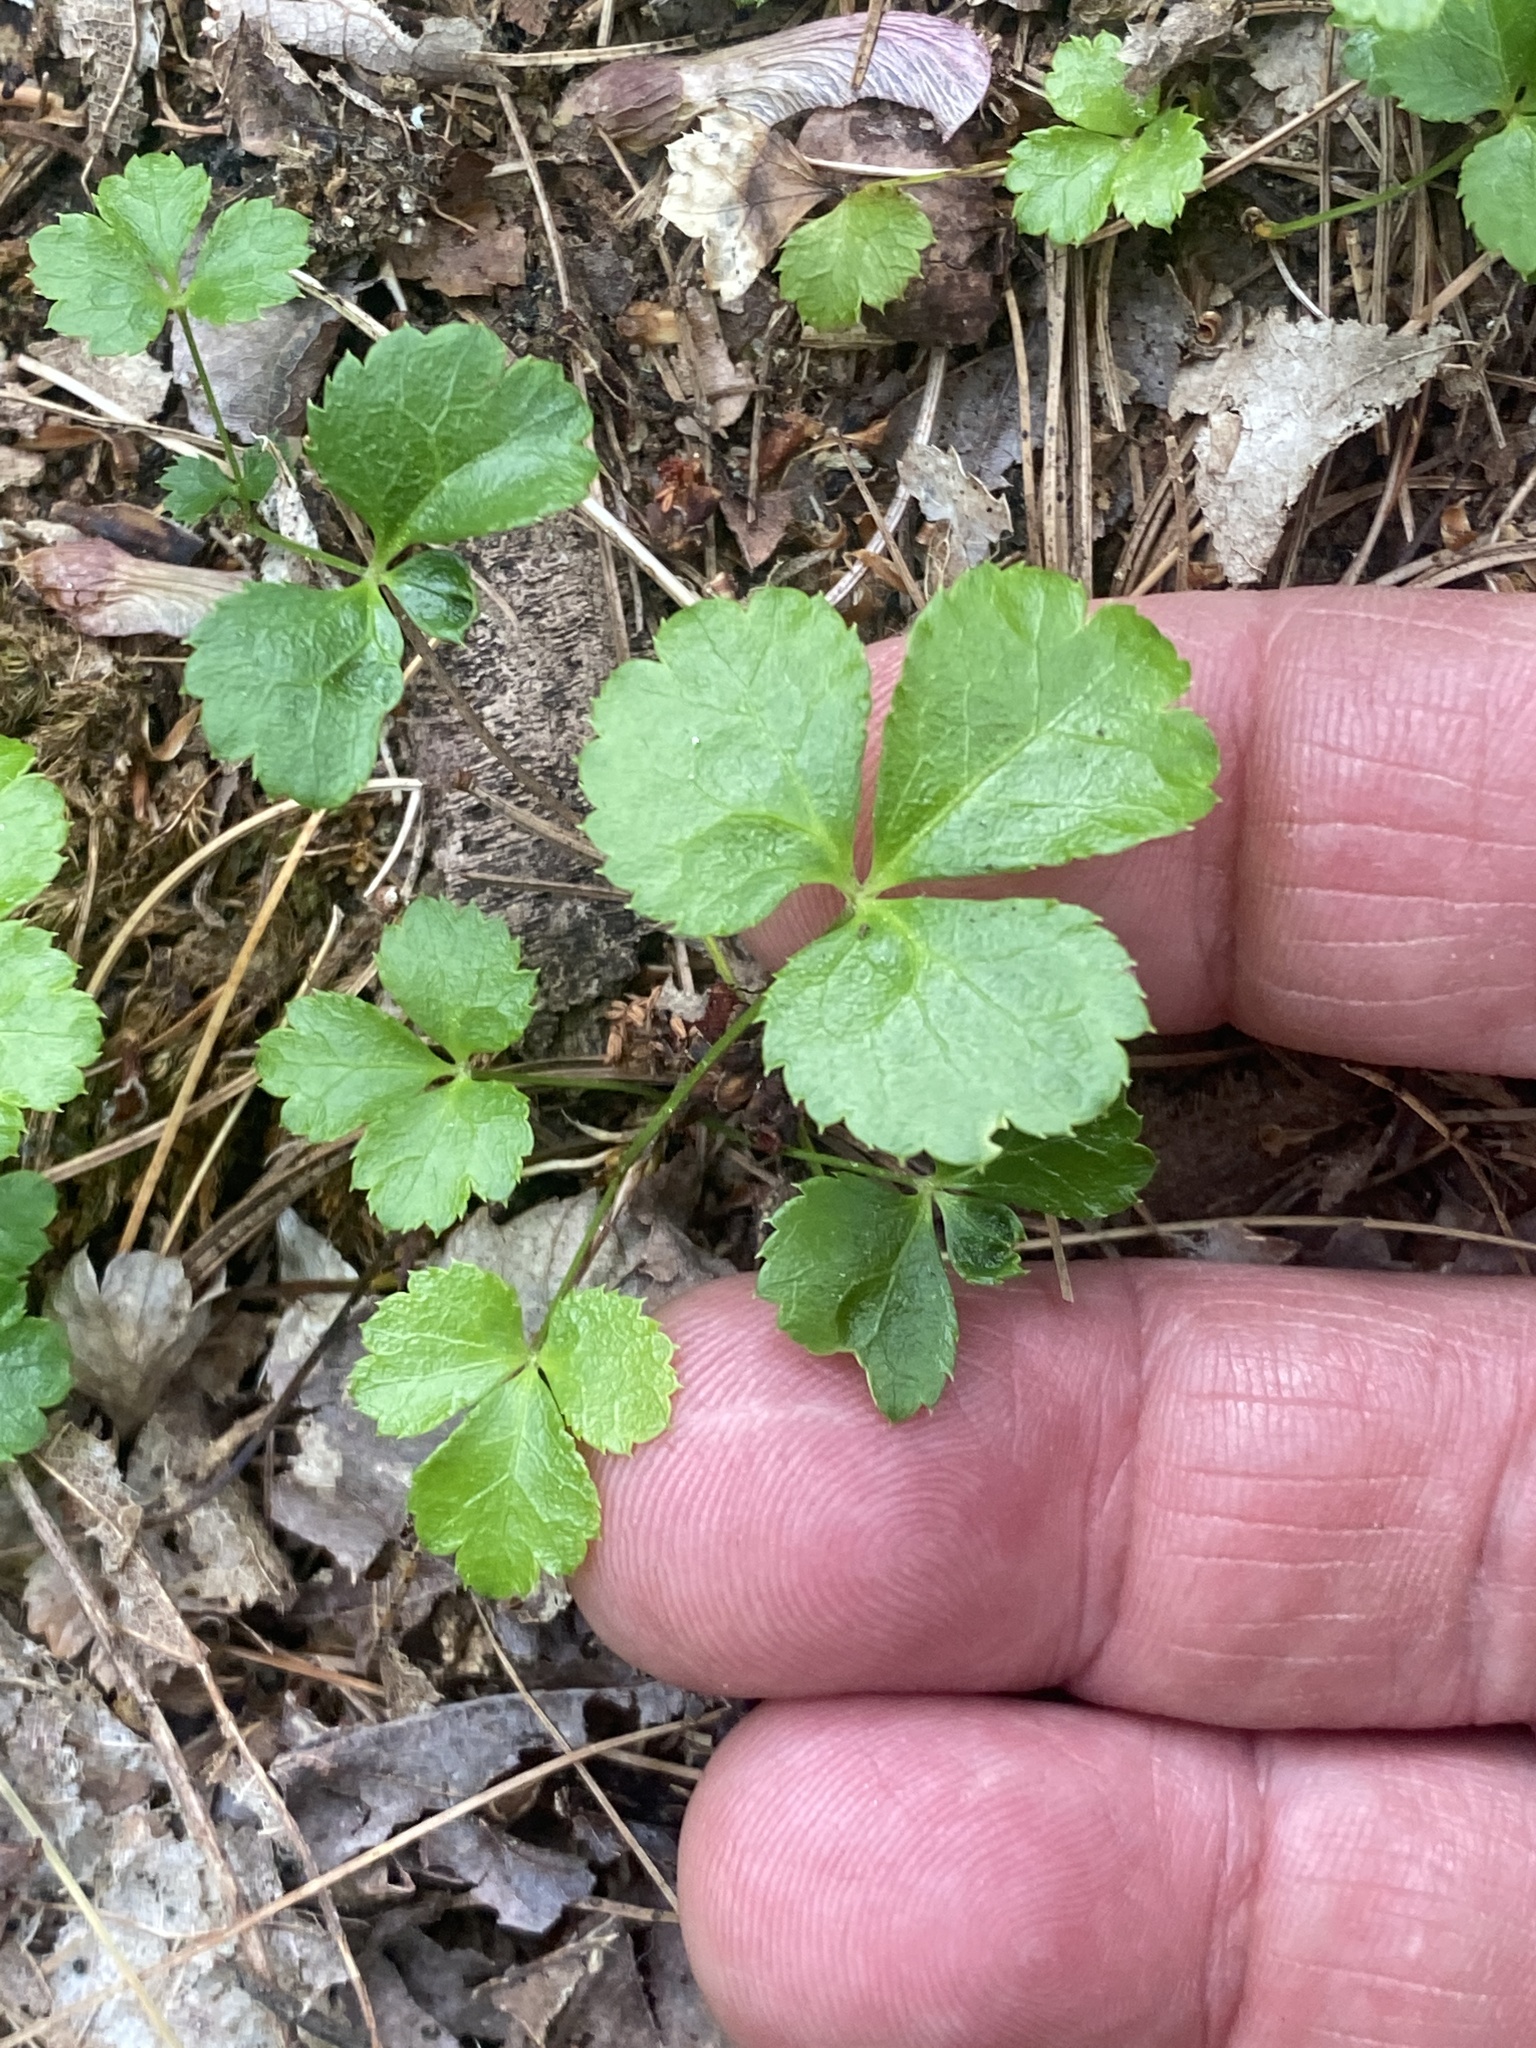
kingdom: Plantae
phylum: Tracheophyta
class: Magnoliopsida
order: Ranunculales
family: Ranunculaceae
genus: Coptis
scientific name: Coptis trifolia
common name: Canker-root
